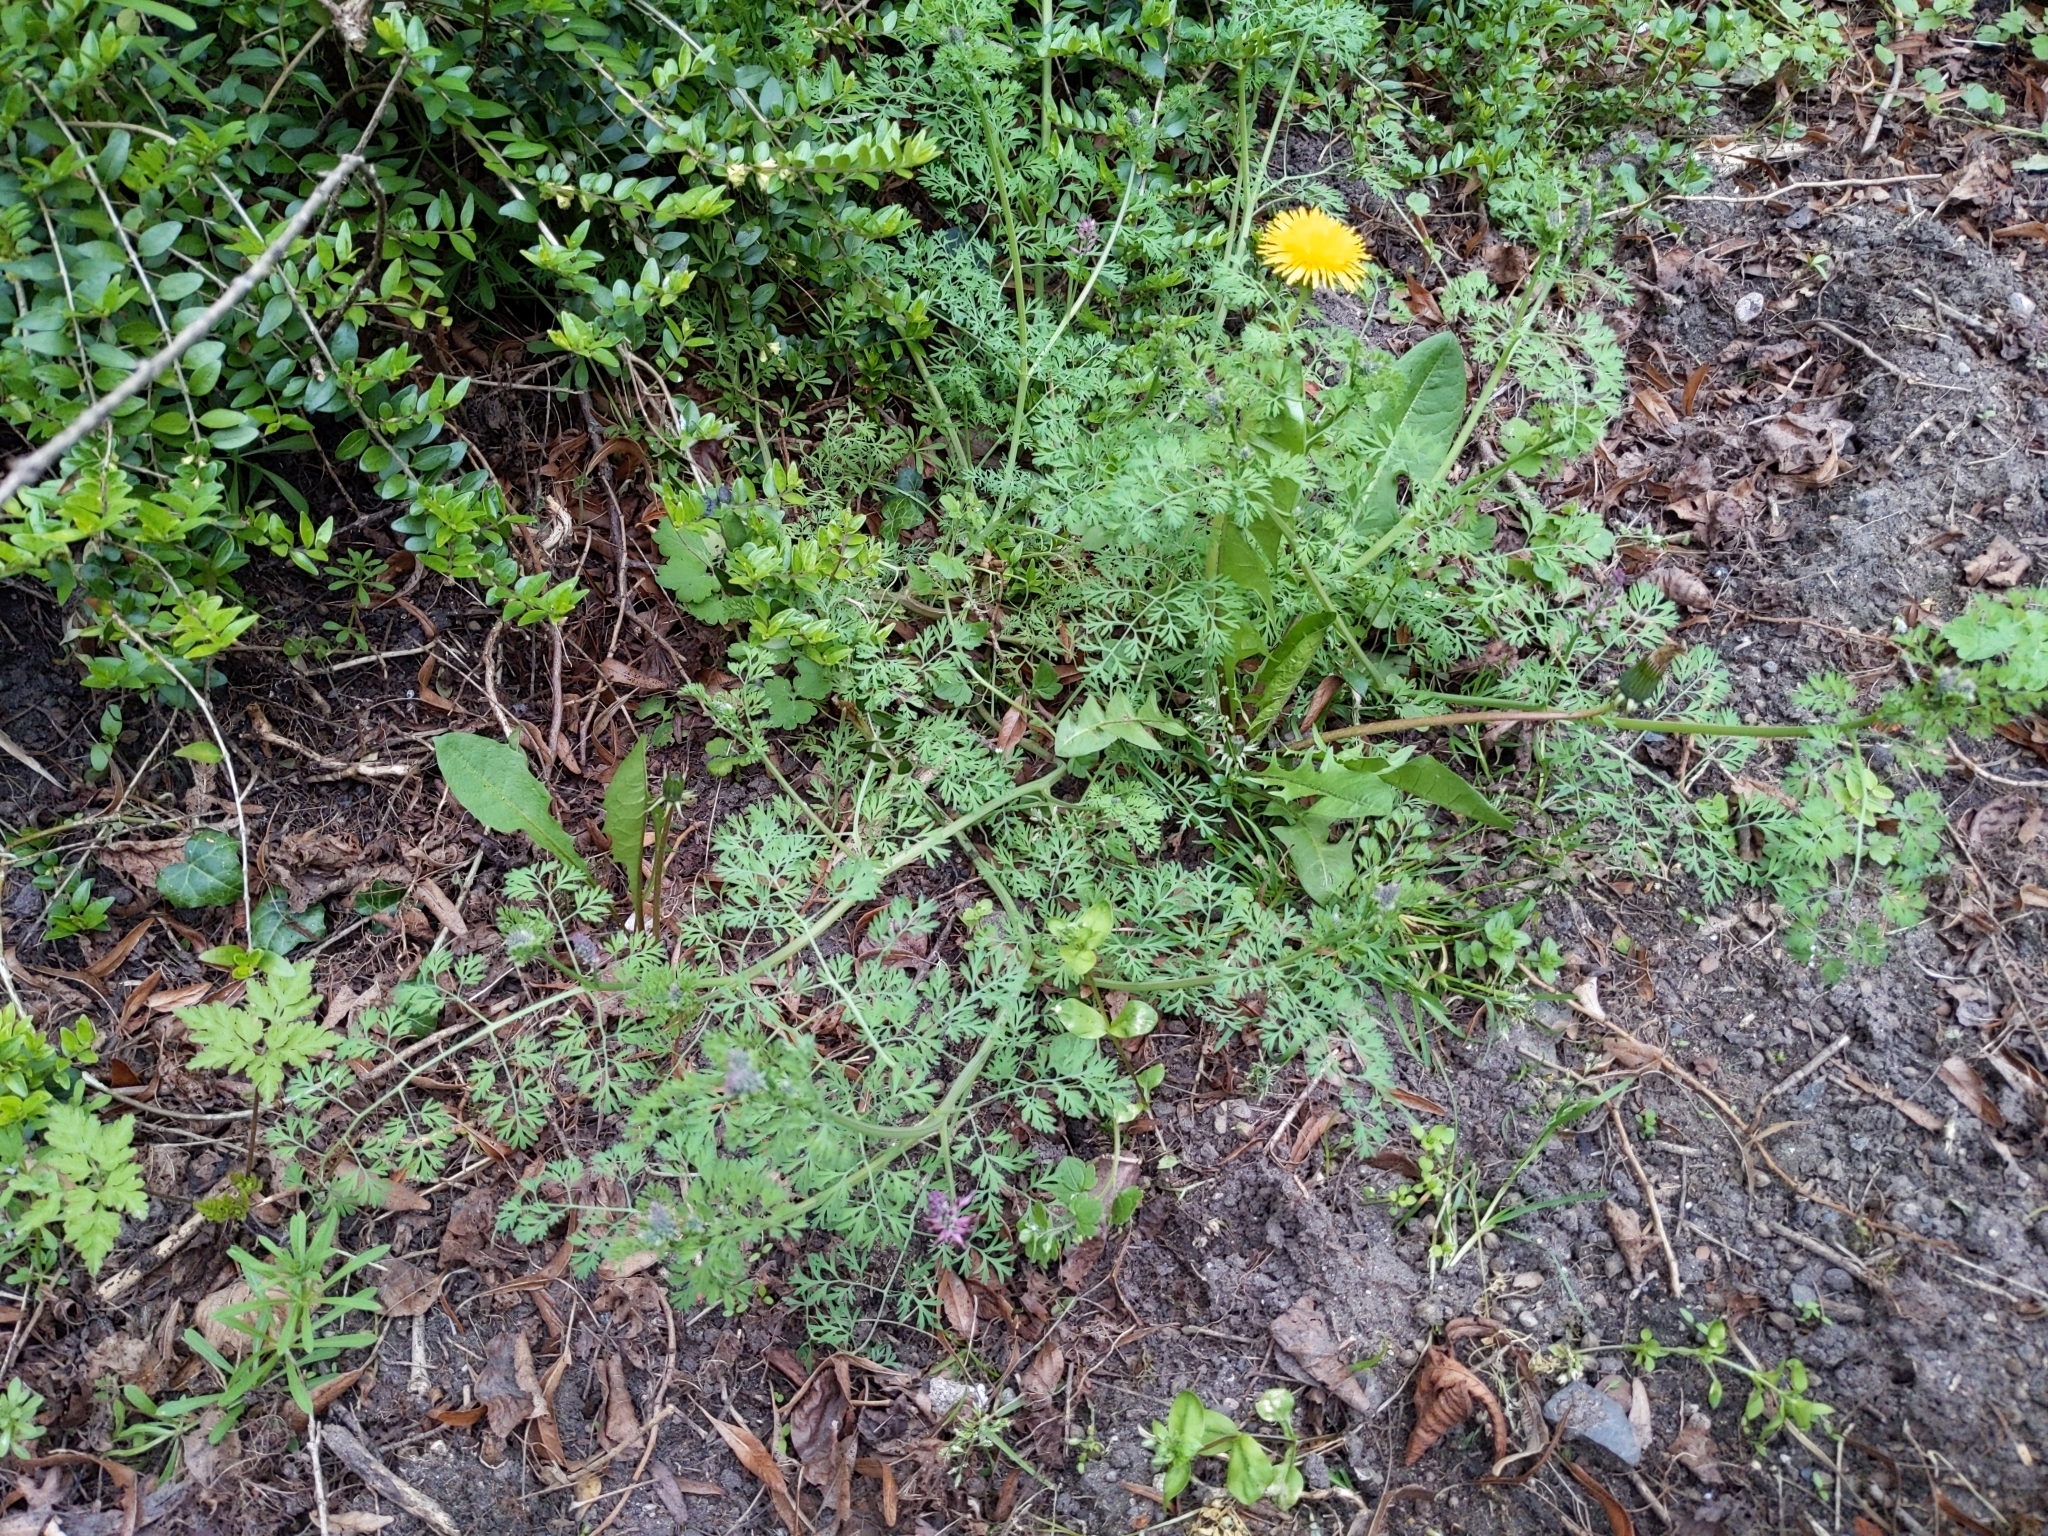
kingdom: Plantae
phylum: Tracheophyta
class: Magnoliopsida
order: Ranunculales
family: Papaveraceae
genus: Fumaria
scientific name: Fumaria officinalis
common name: Common fumitory
